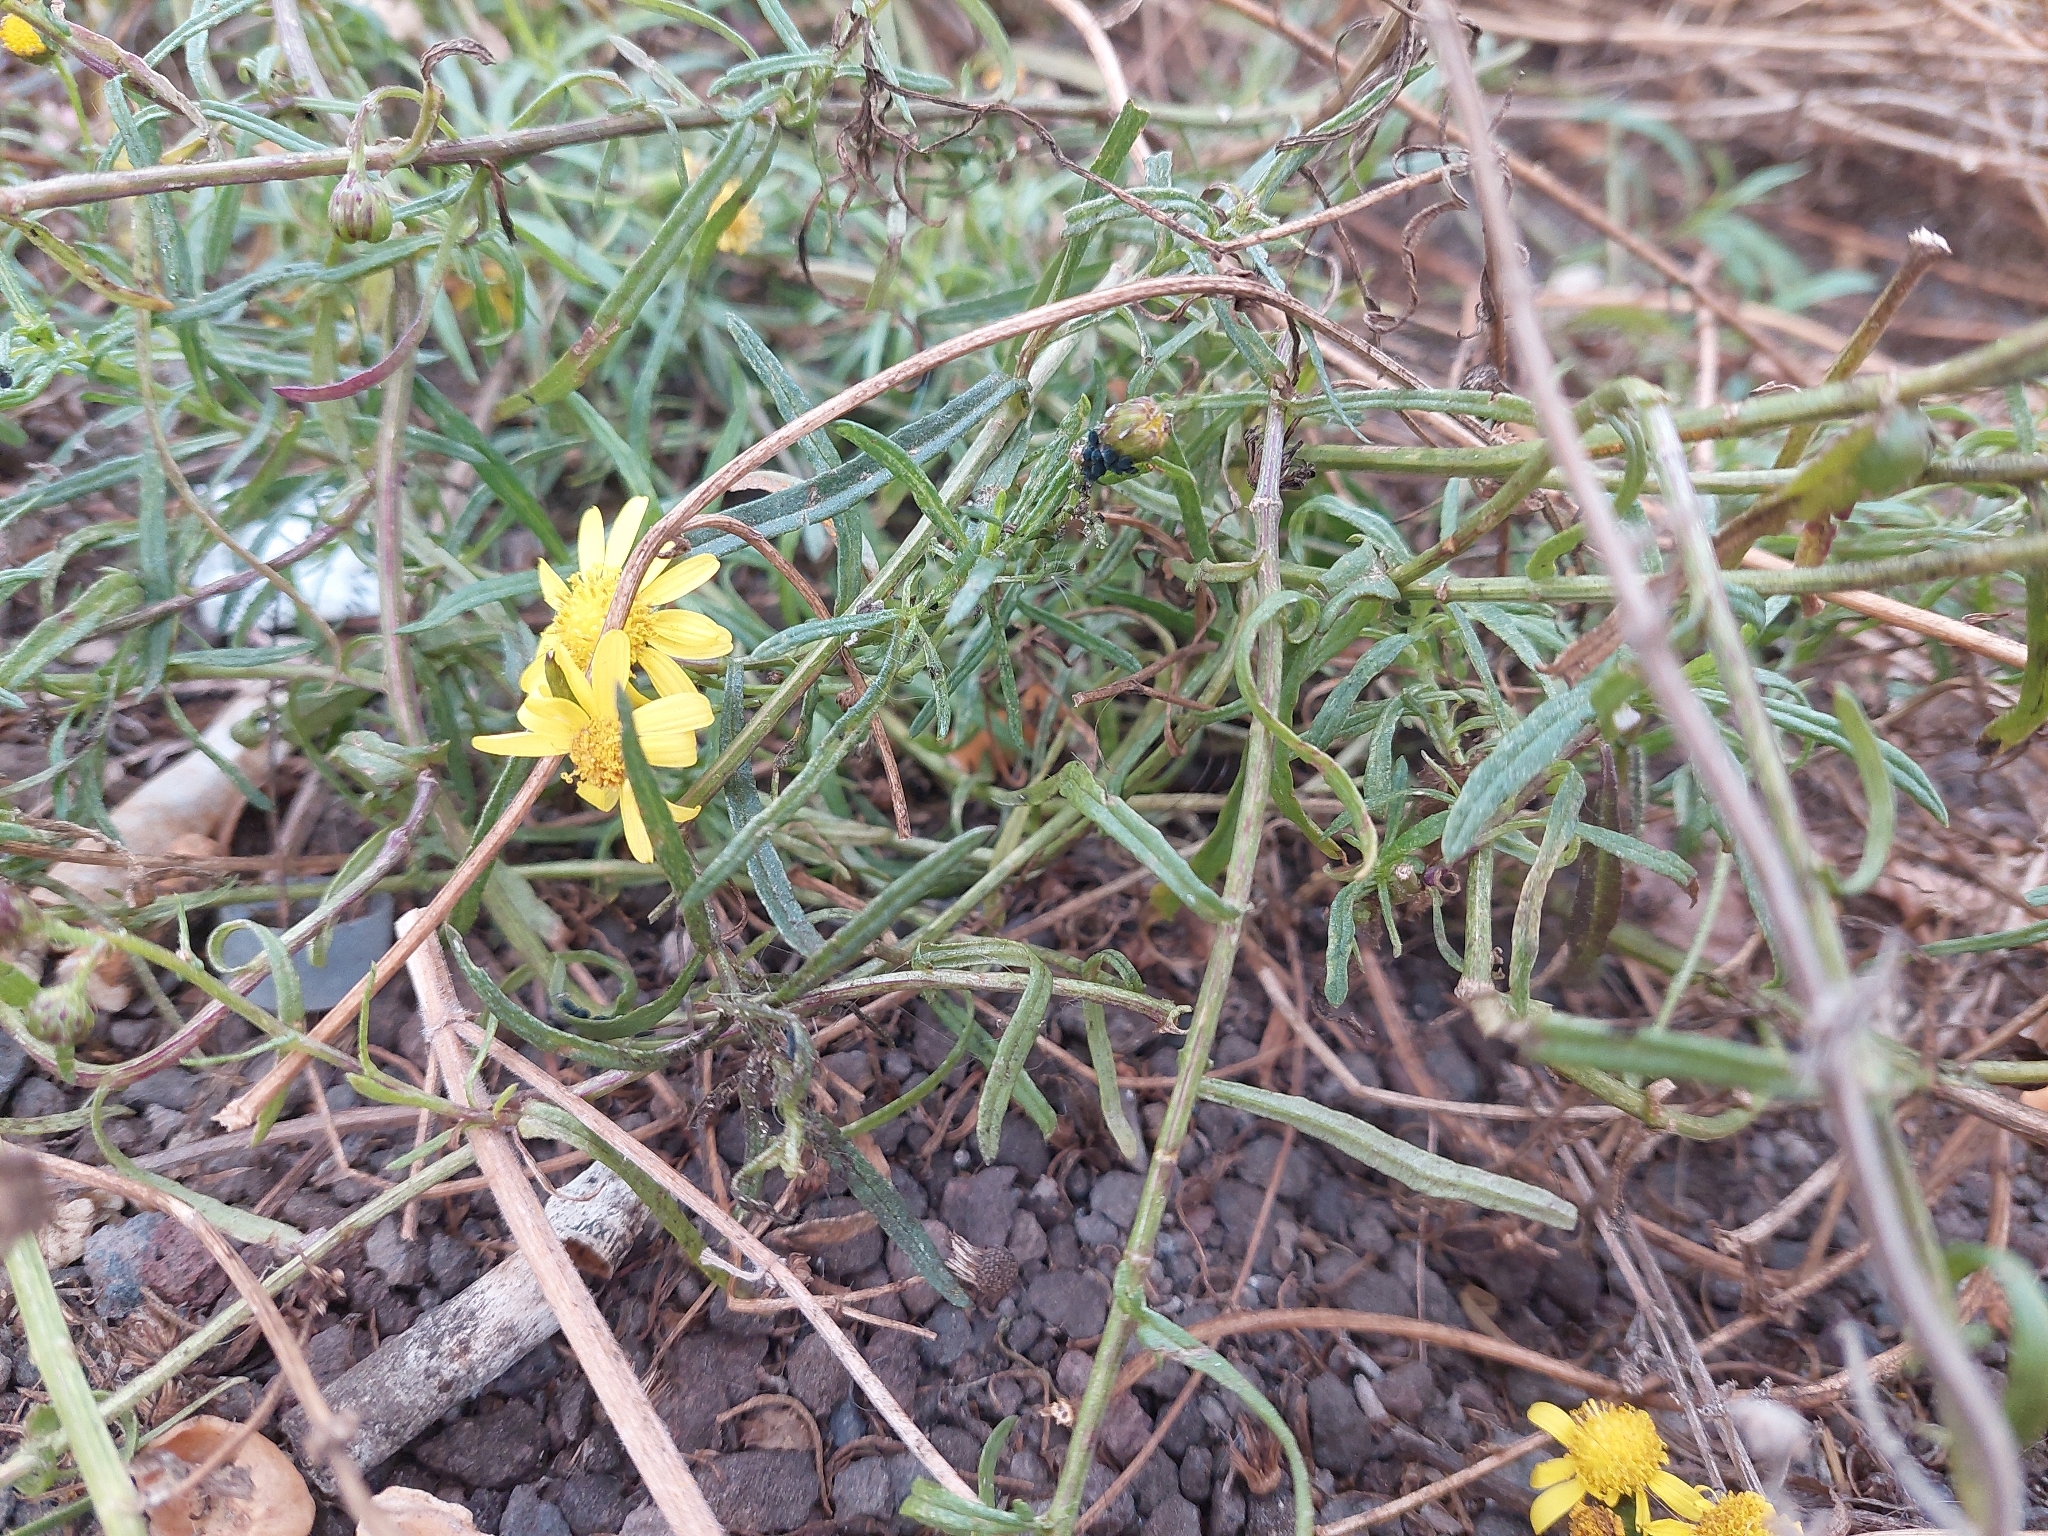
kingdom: Plantae
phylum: Tracheophyta
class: Magnoliopsida
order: Asterales
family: Asteraceae
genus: Senecio
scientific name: Senecio inaequidens
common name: Narrow-leaved ragwort
